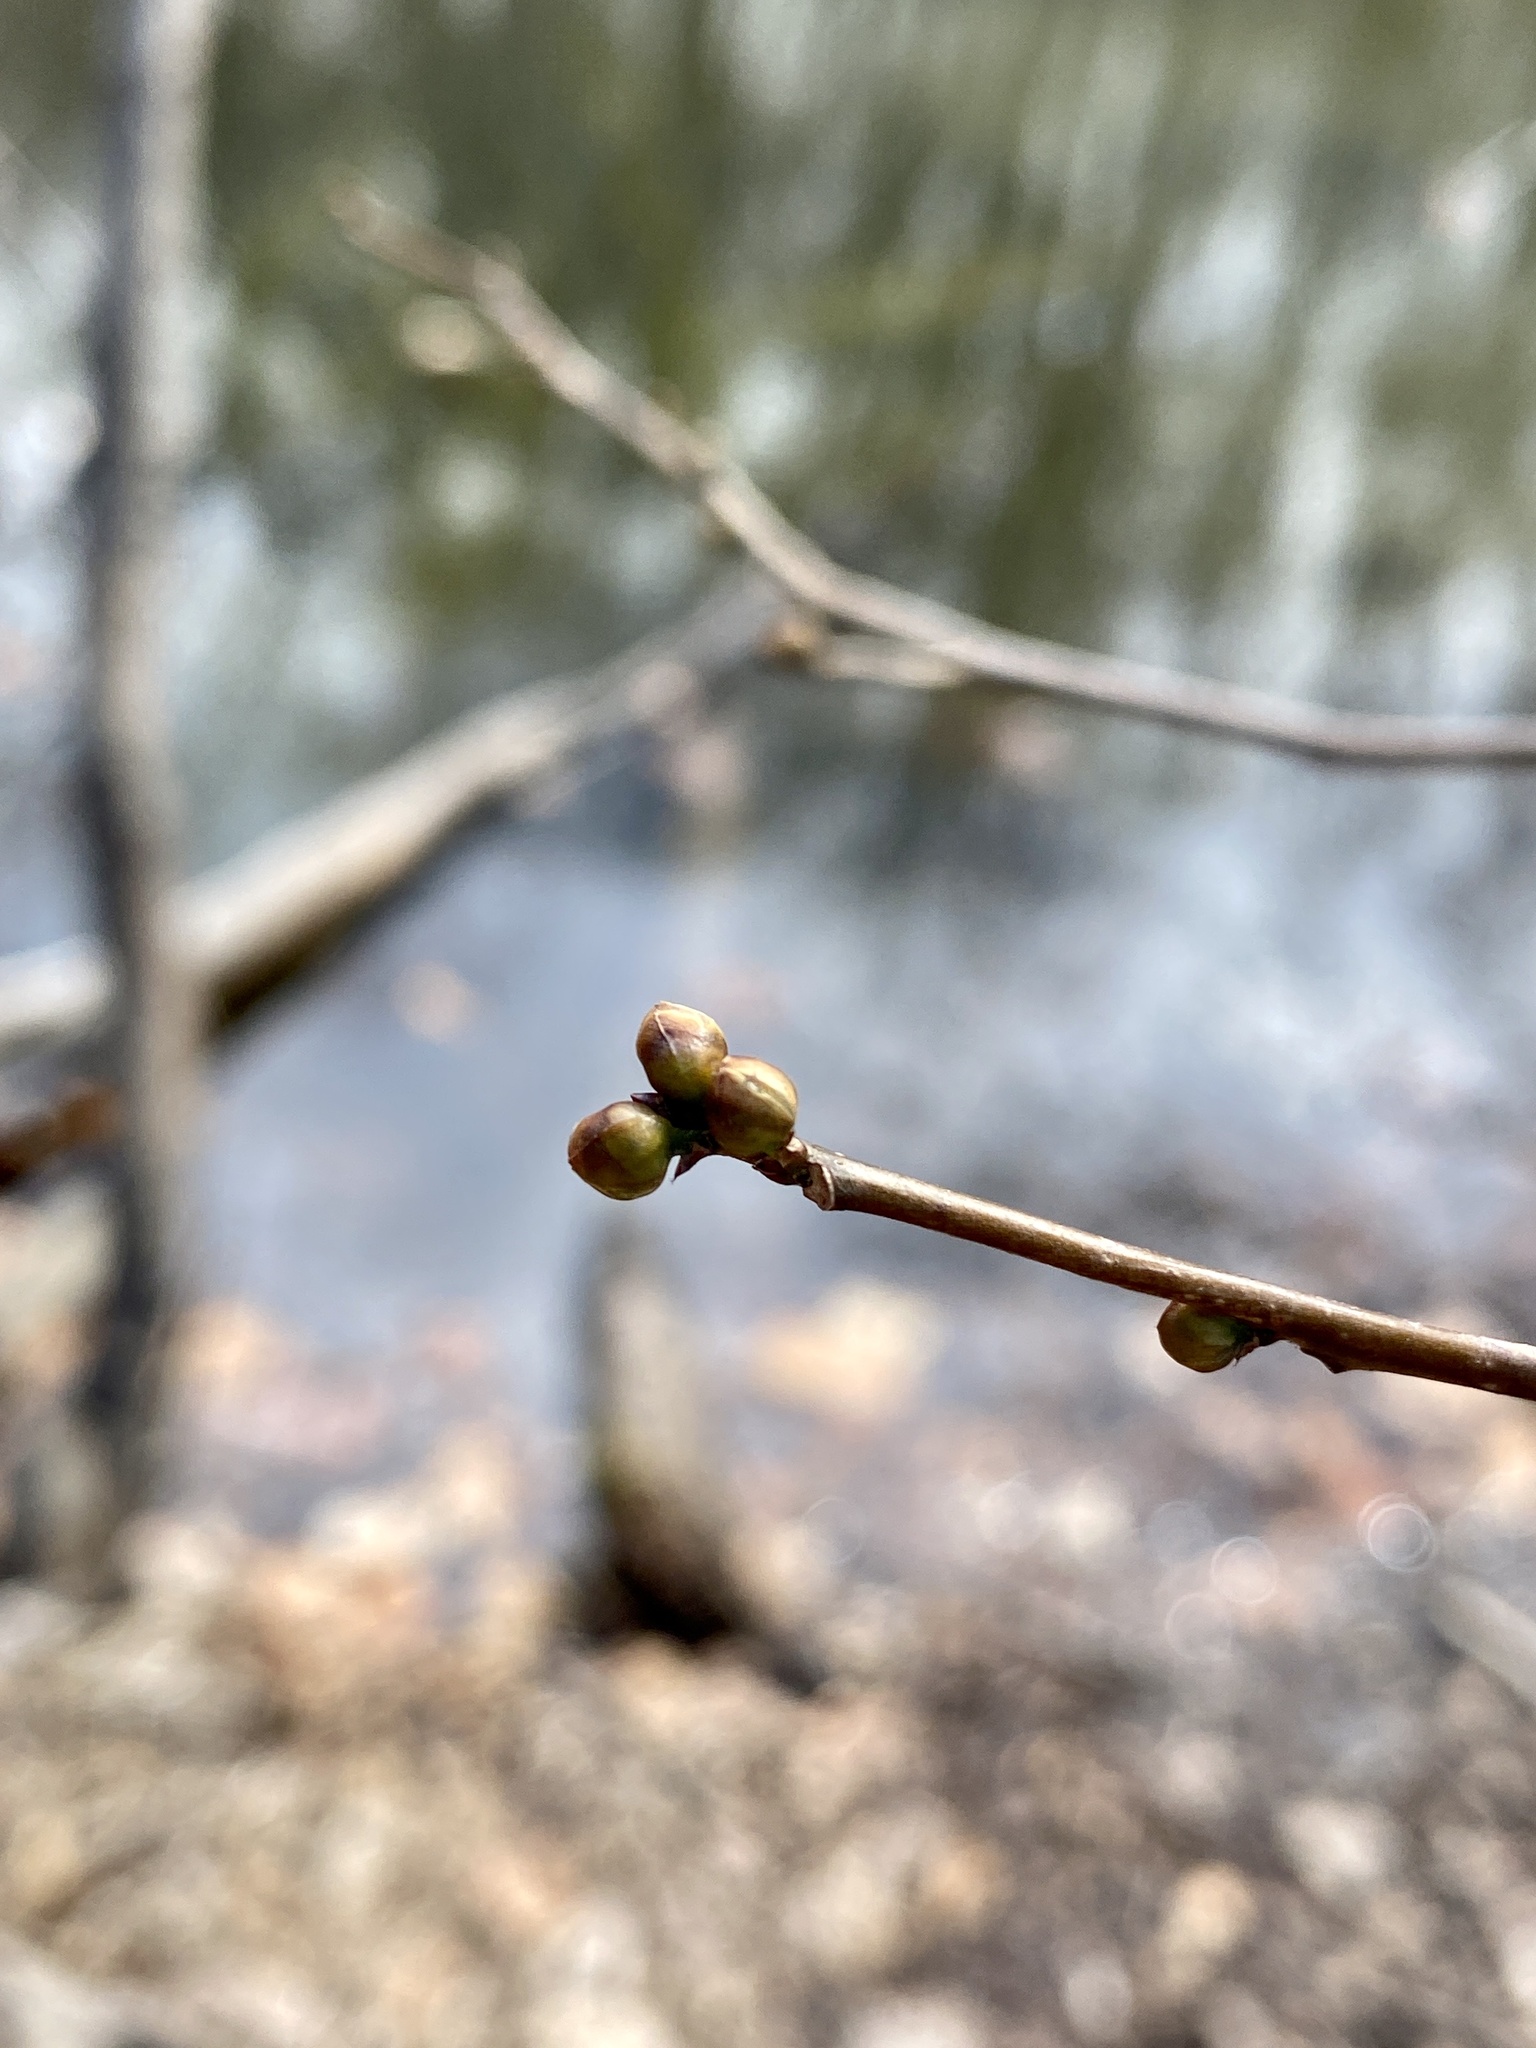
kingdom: Plantae
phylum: Tracheophyta
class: Magnoliopsida
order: Laurales
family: Lauraceae
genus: Lindera
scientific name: Lindera benzoin
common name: Spicebush
